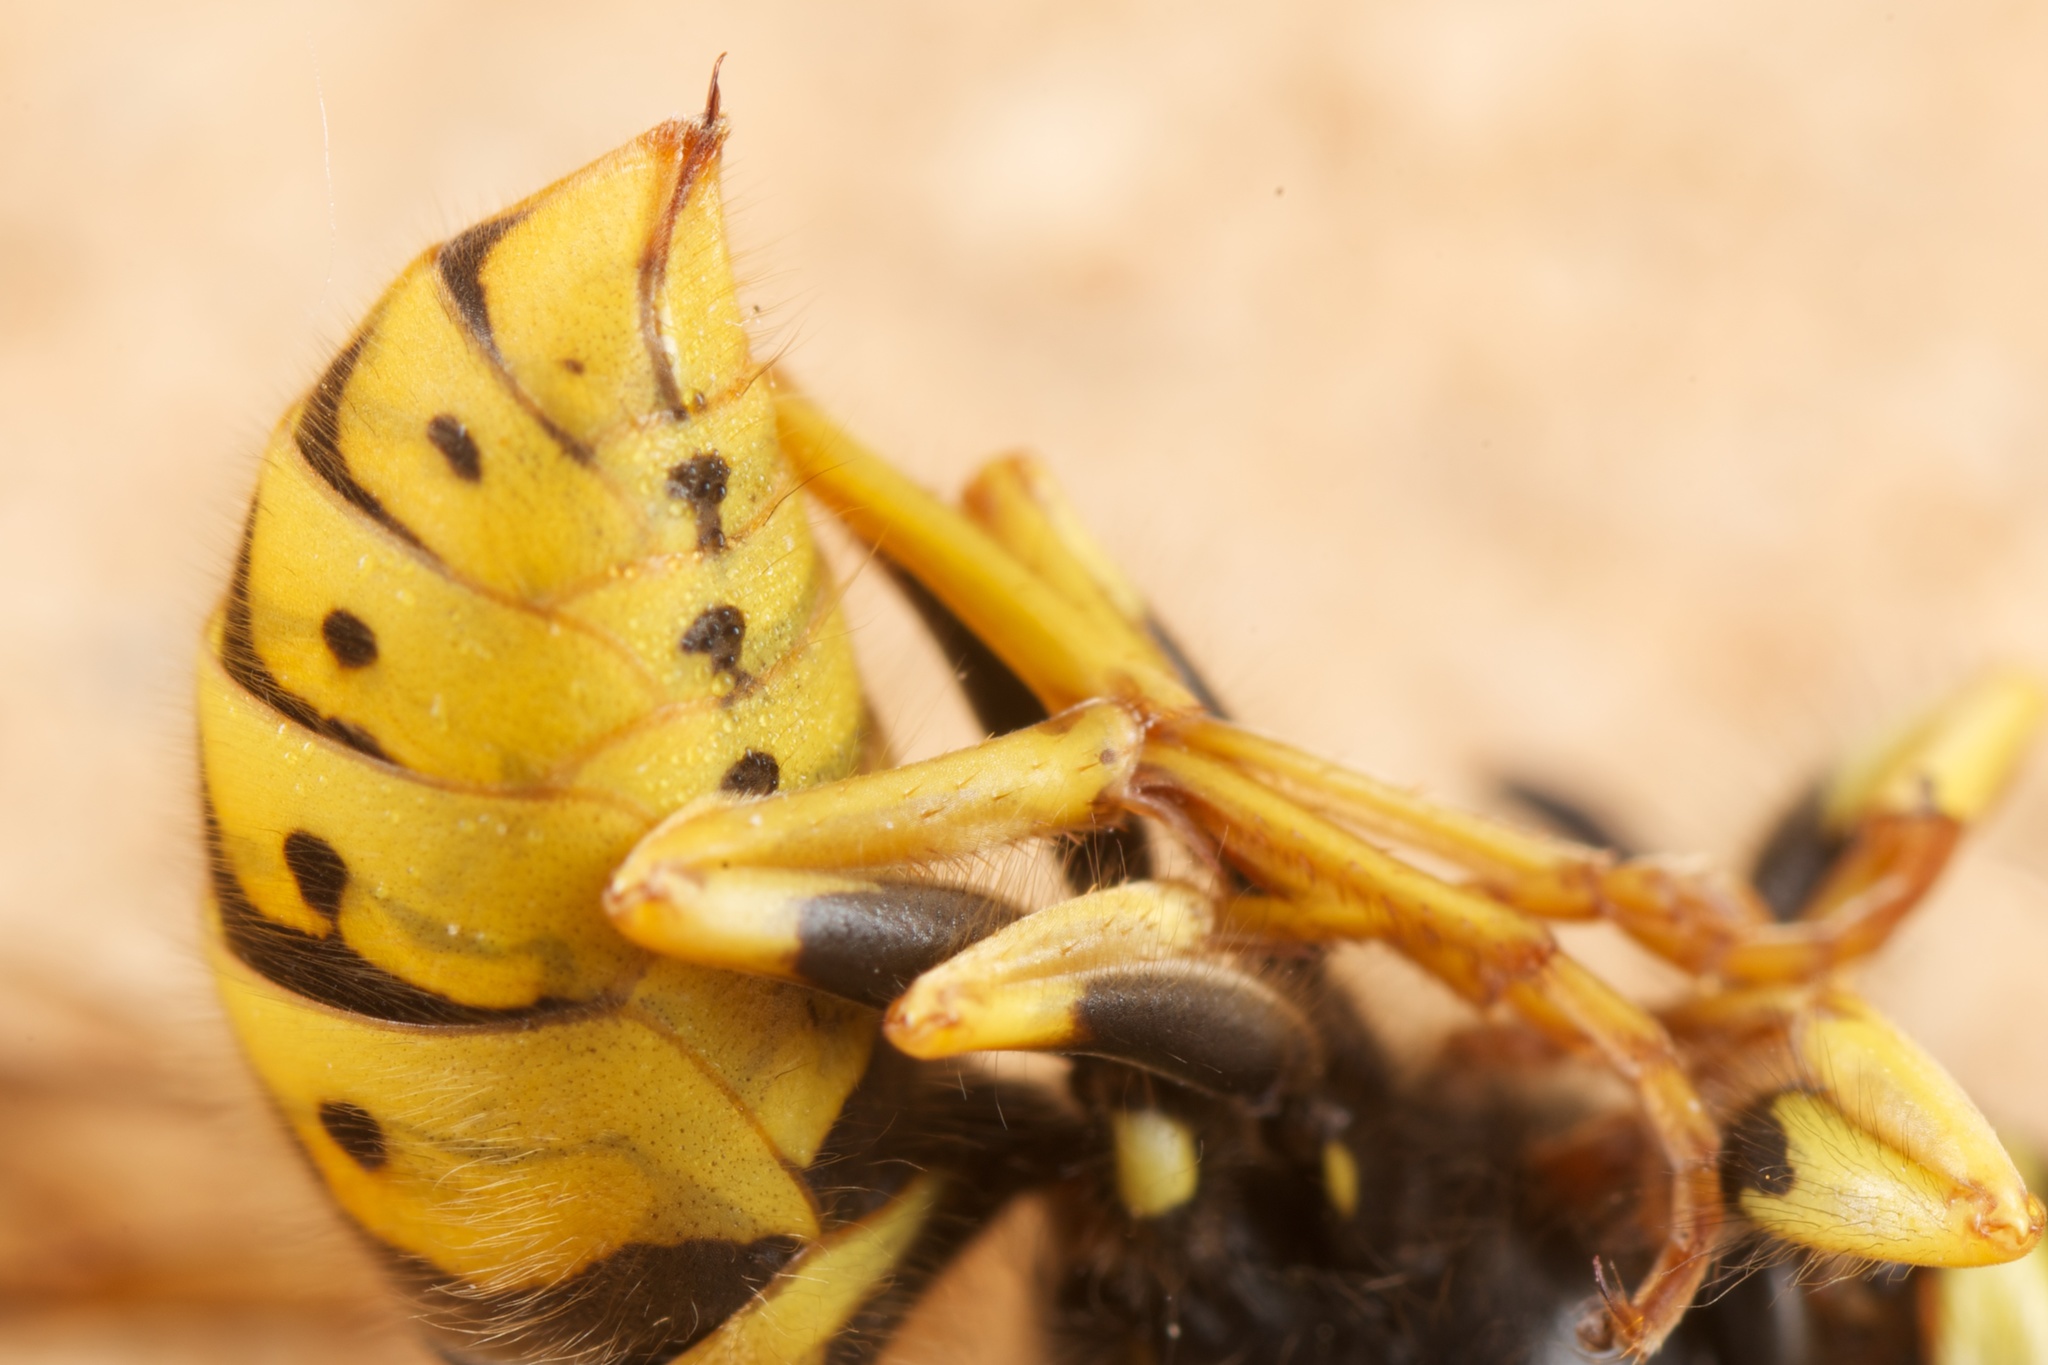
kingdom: Animalia
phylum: Arthropoda
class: Insecta
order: Hymenoptera
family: Vespidae
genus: Vespula
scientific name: Vespula germanica
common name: German wasp
